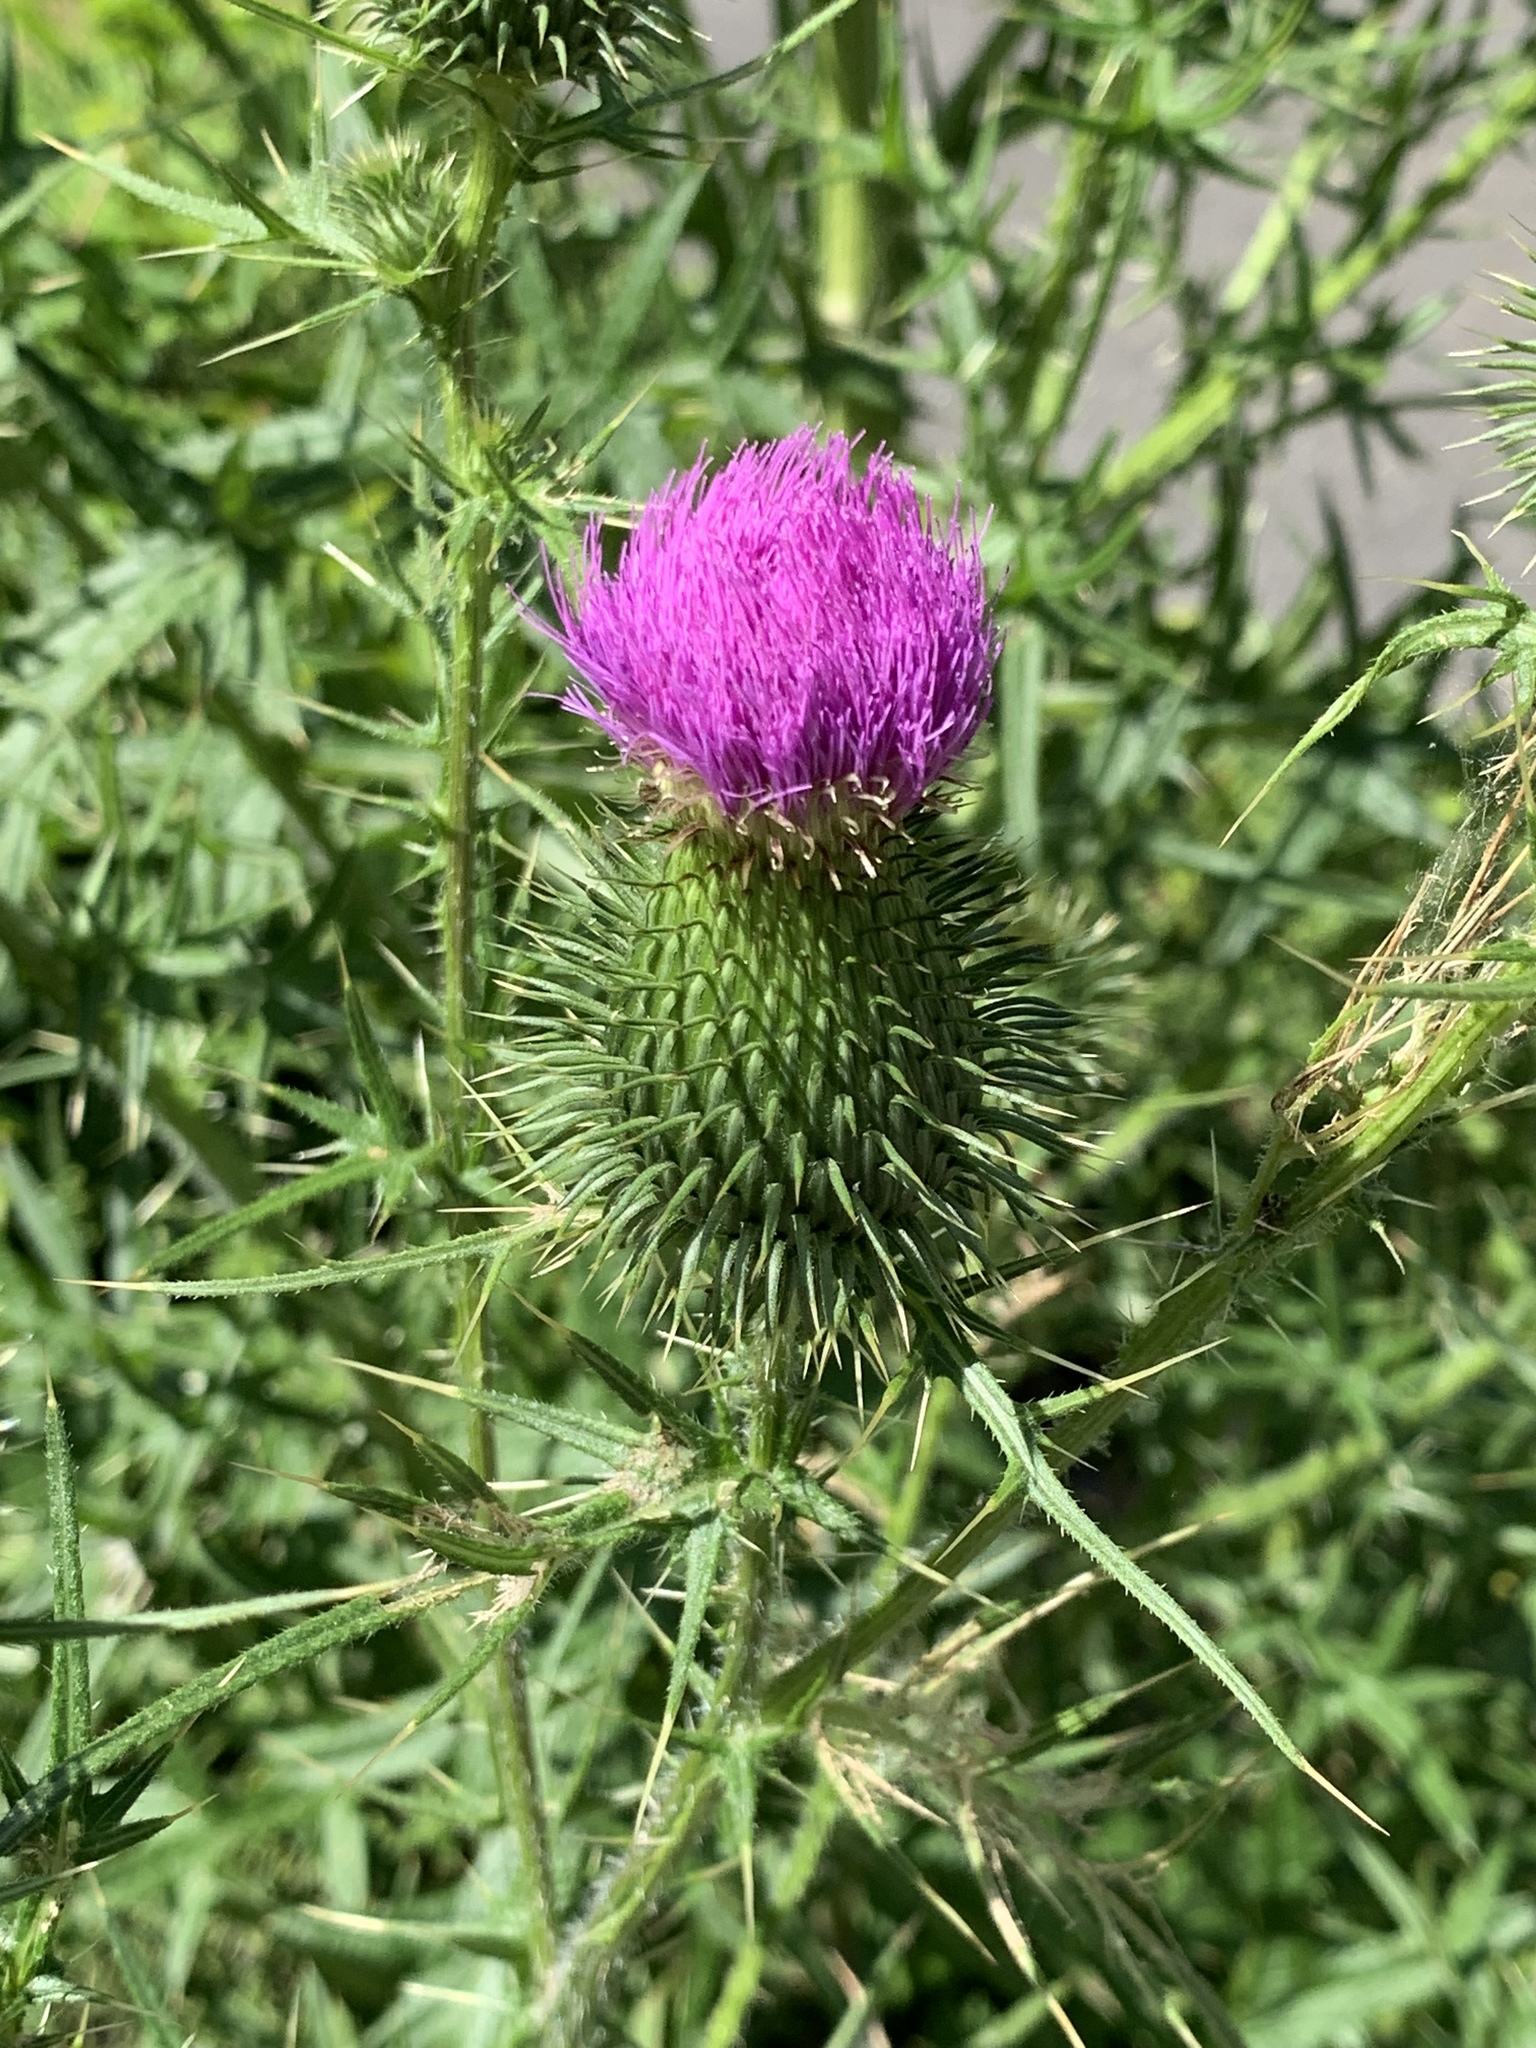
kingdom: Plantae
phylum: Tracheophyta
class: Magnoliopsida
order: Asterales
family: Asteraceae
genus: Cirsium
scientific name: Cirsium vulgare
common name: Bull thistle
